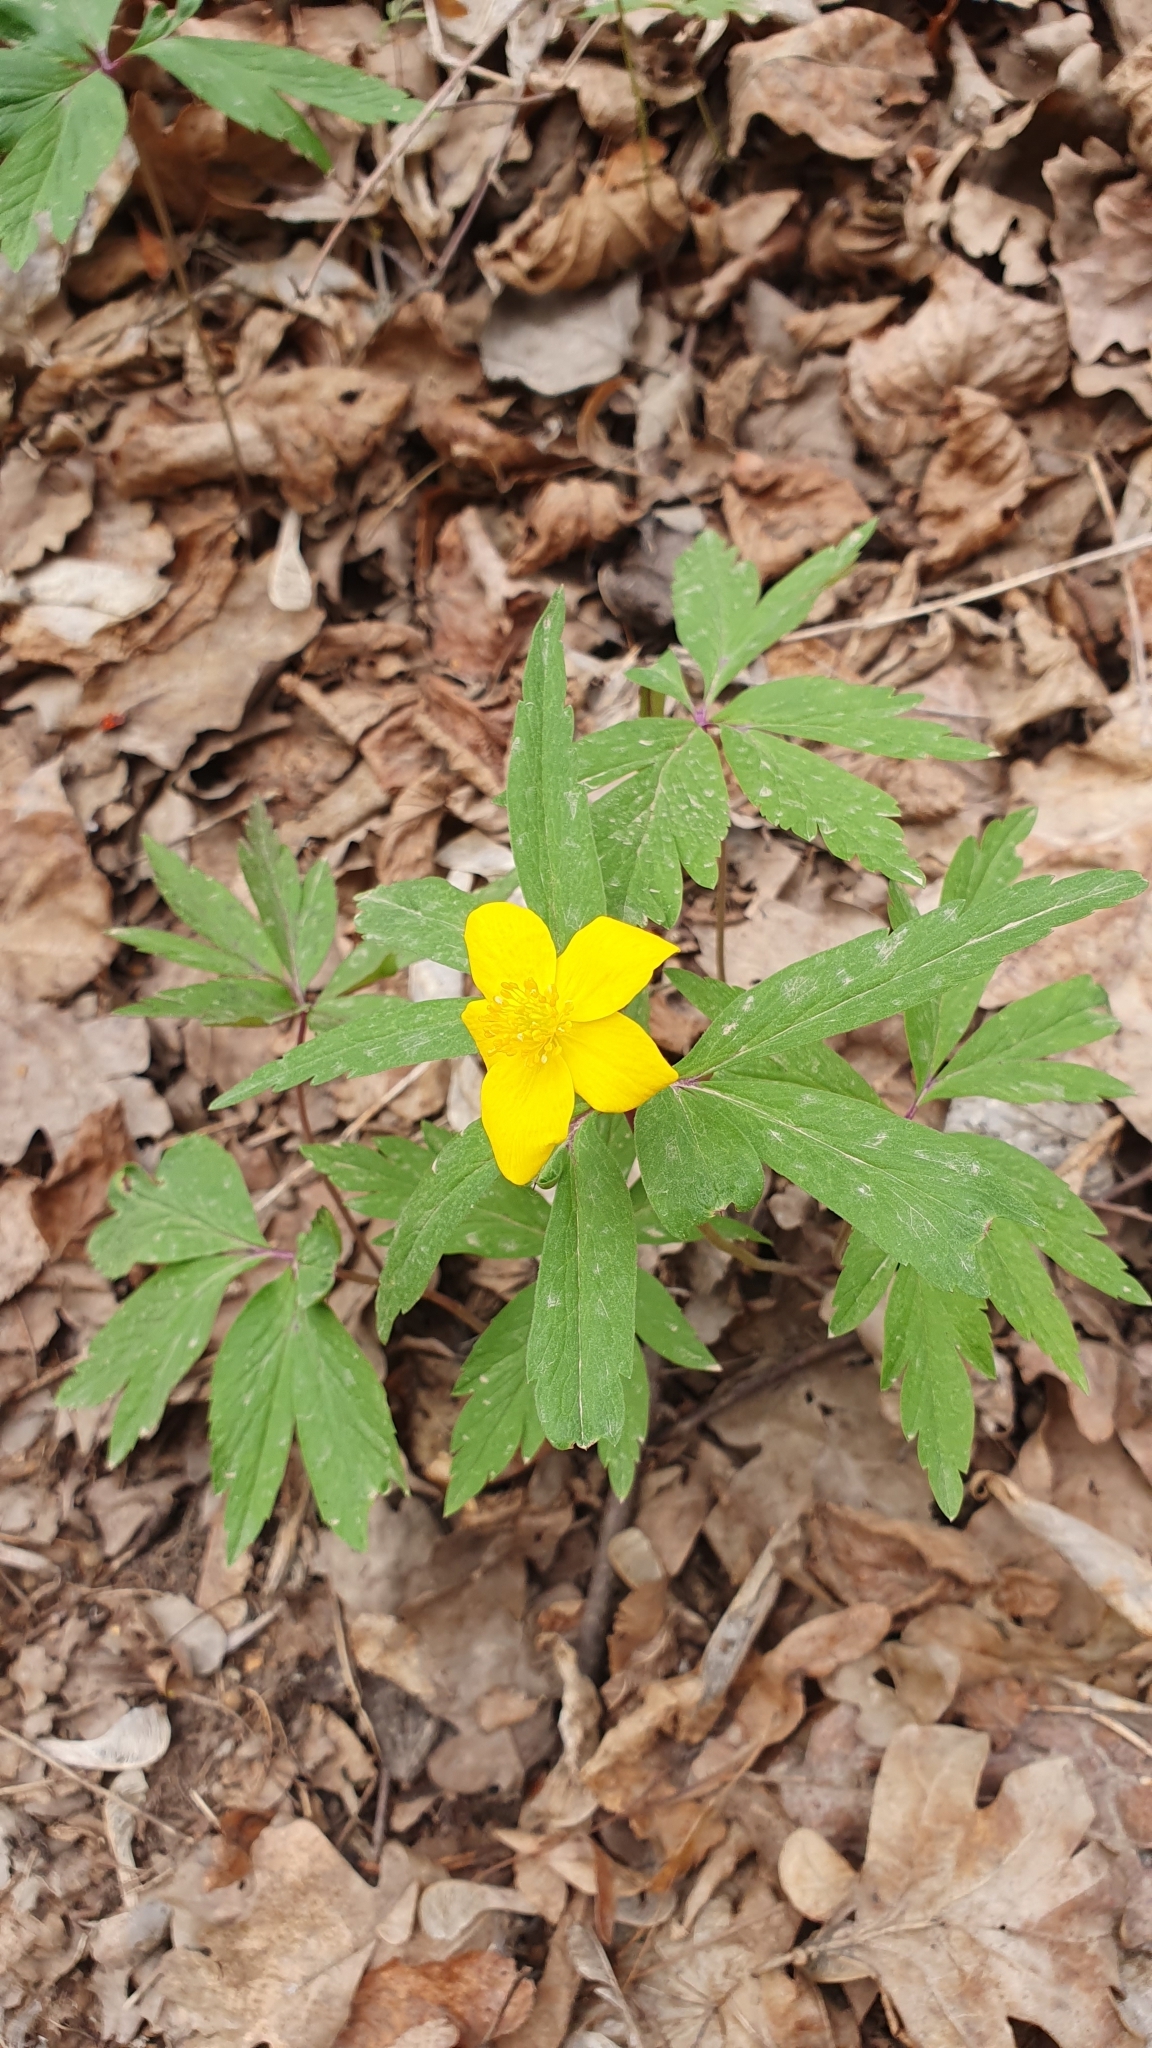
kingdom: Plantae
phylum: Tracheophyta
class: Magnoliopsida
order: Ranunculales
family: Ranunculaceae
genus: Anemone
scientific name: Anemone ranunculoides
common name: Yellow anemone
